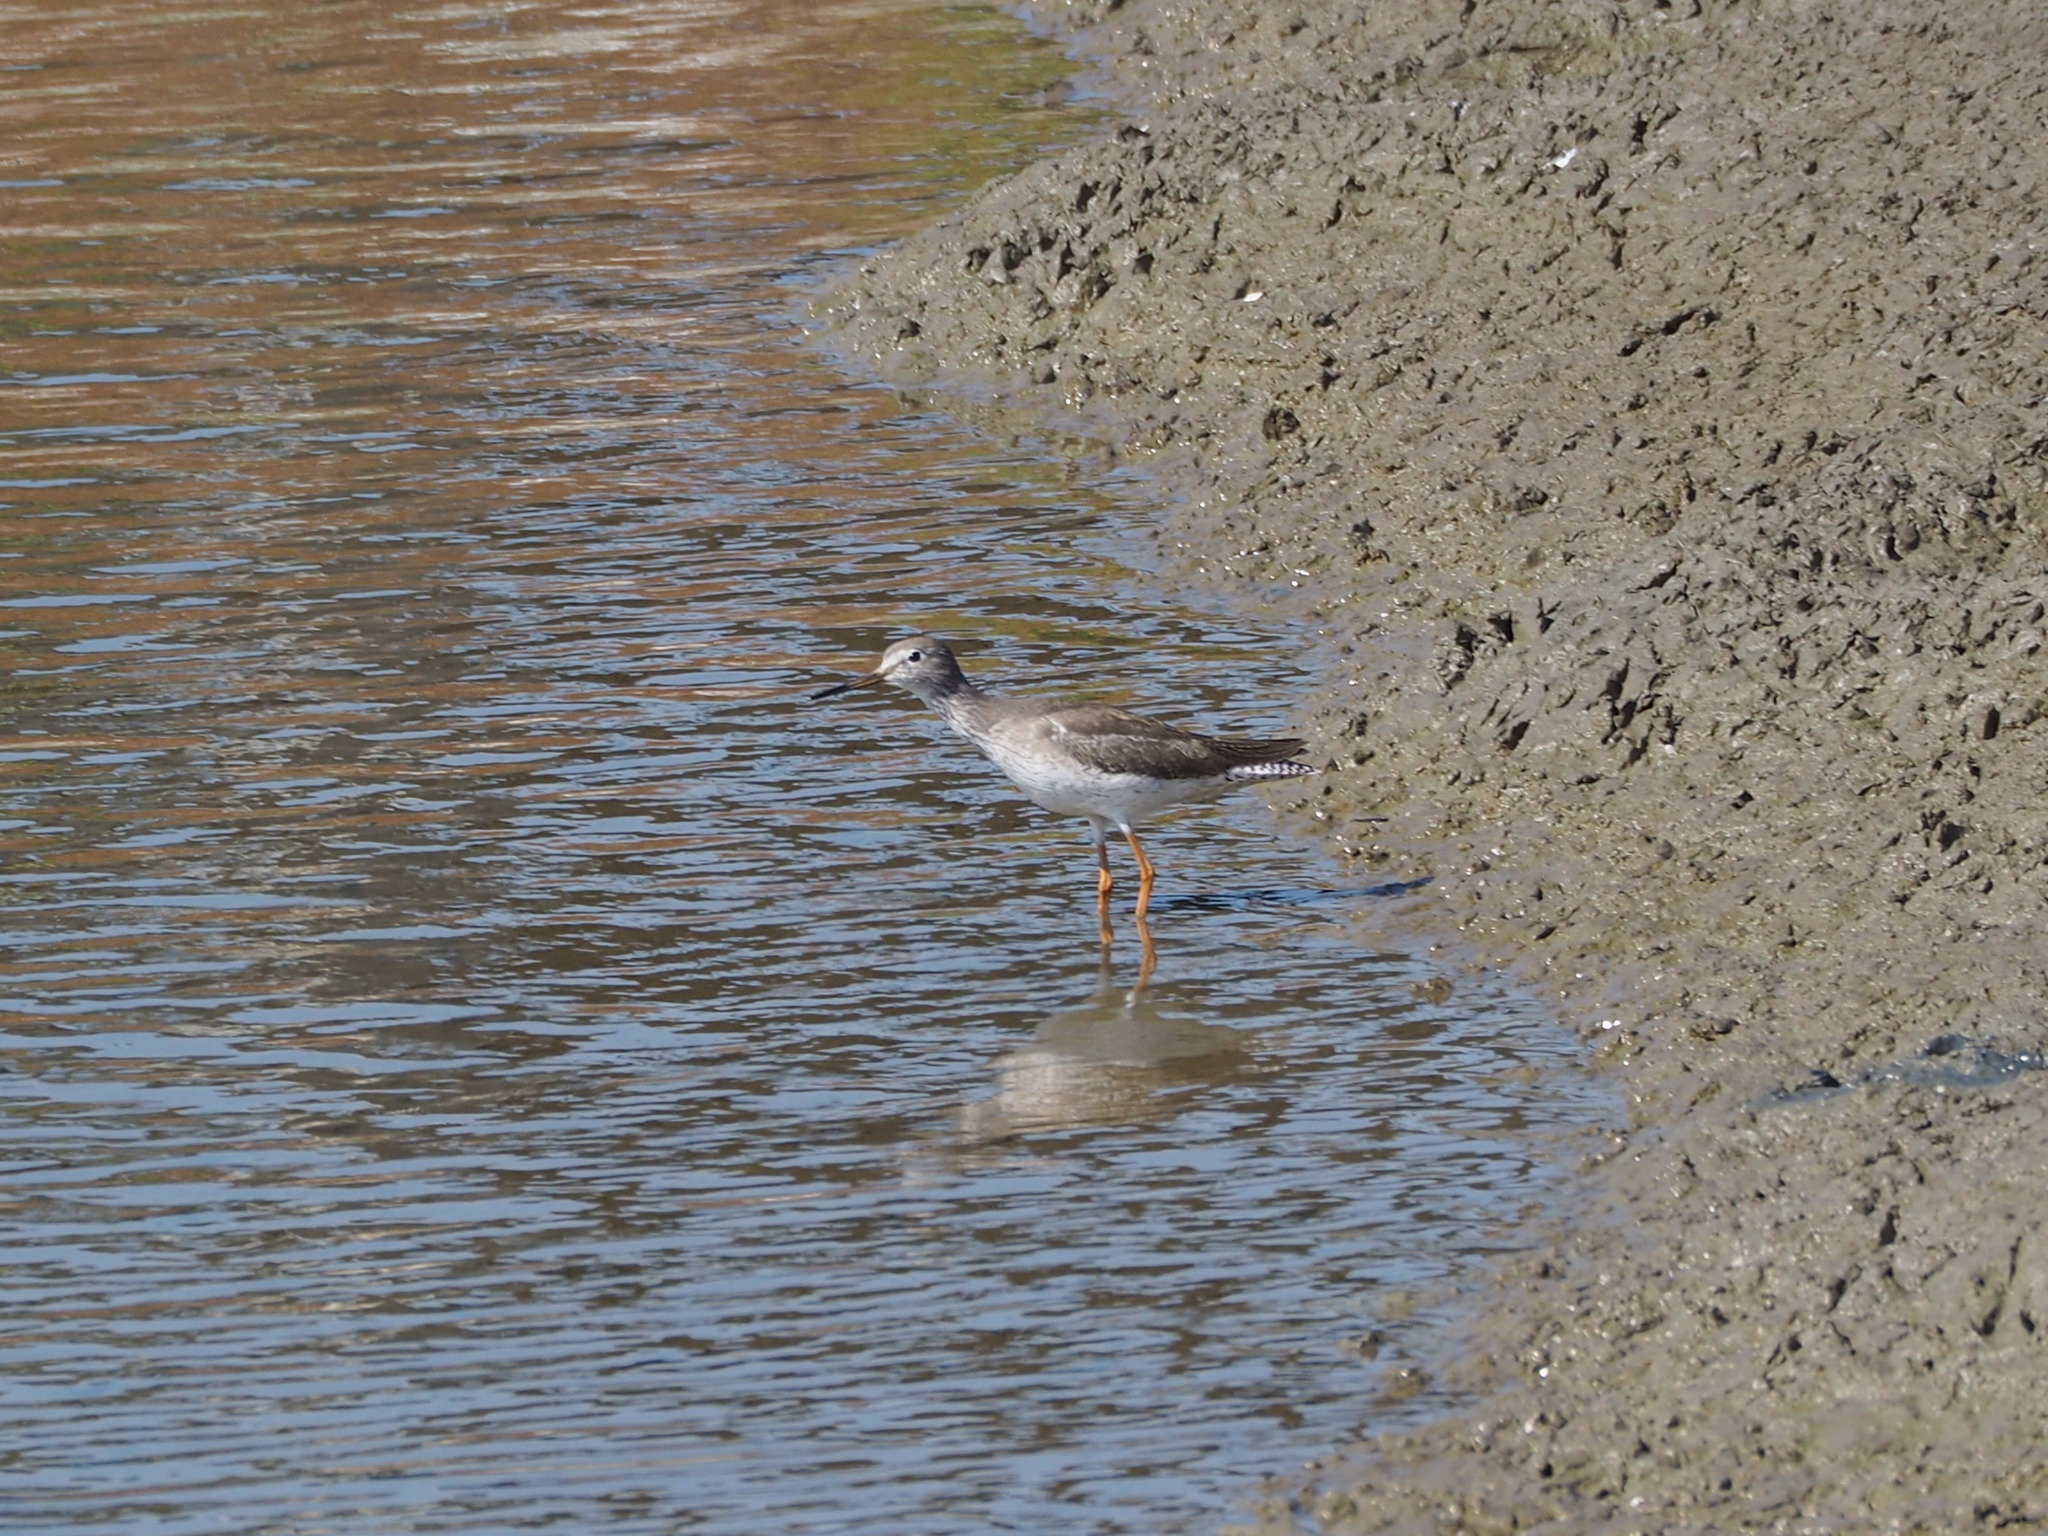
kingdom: Animalia
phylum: Chordata
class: Aves
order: Charadriiformes
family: Scolopacidae
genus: Tringa
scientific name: Tringa totanus
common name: Common redshank
